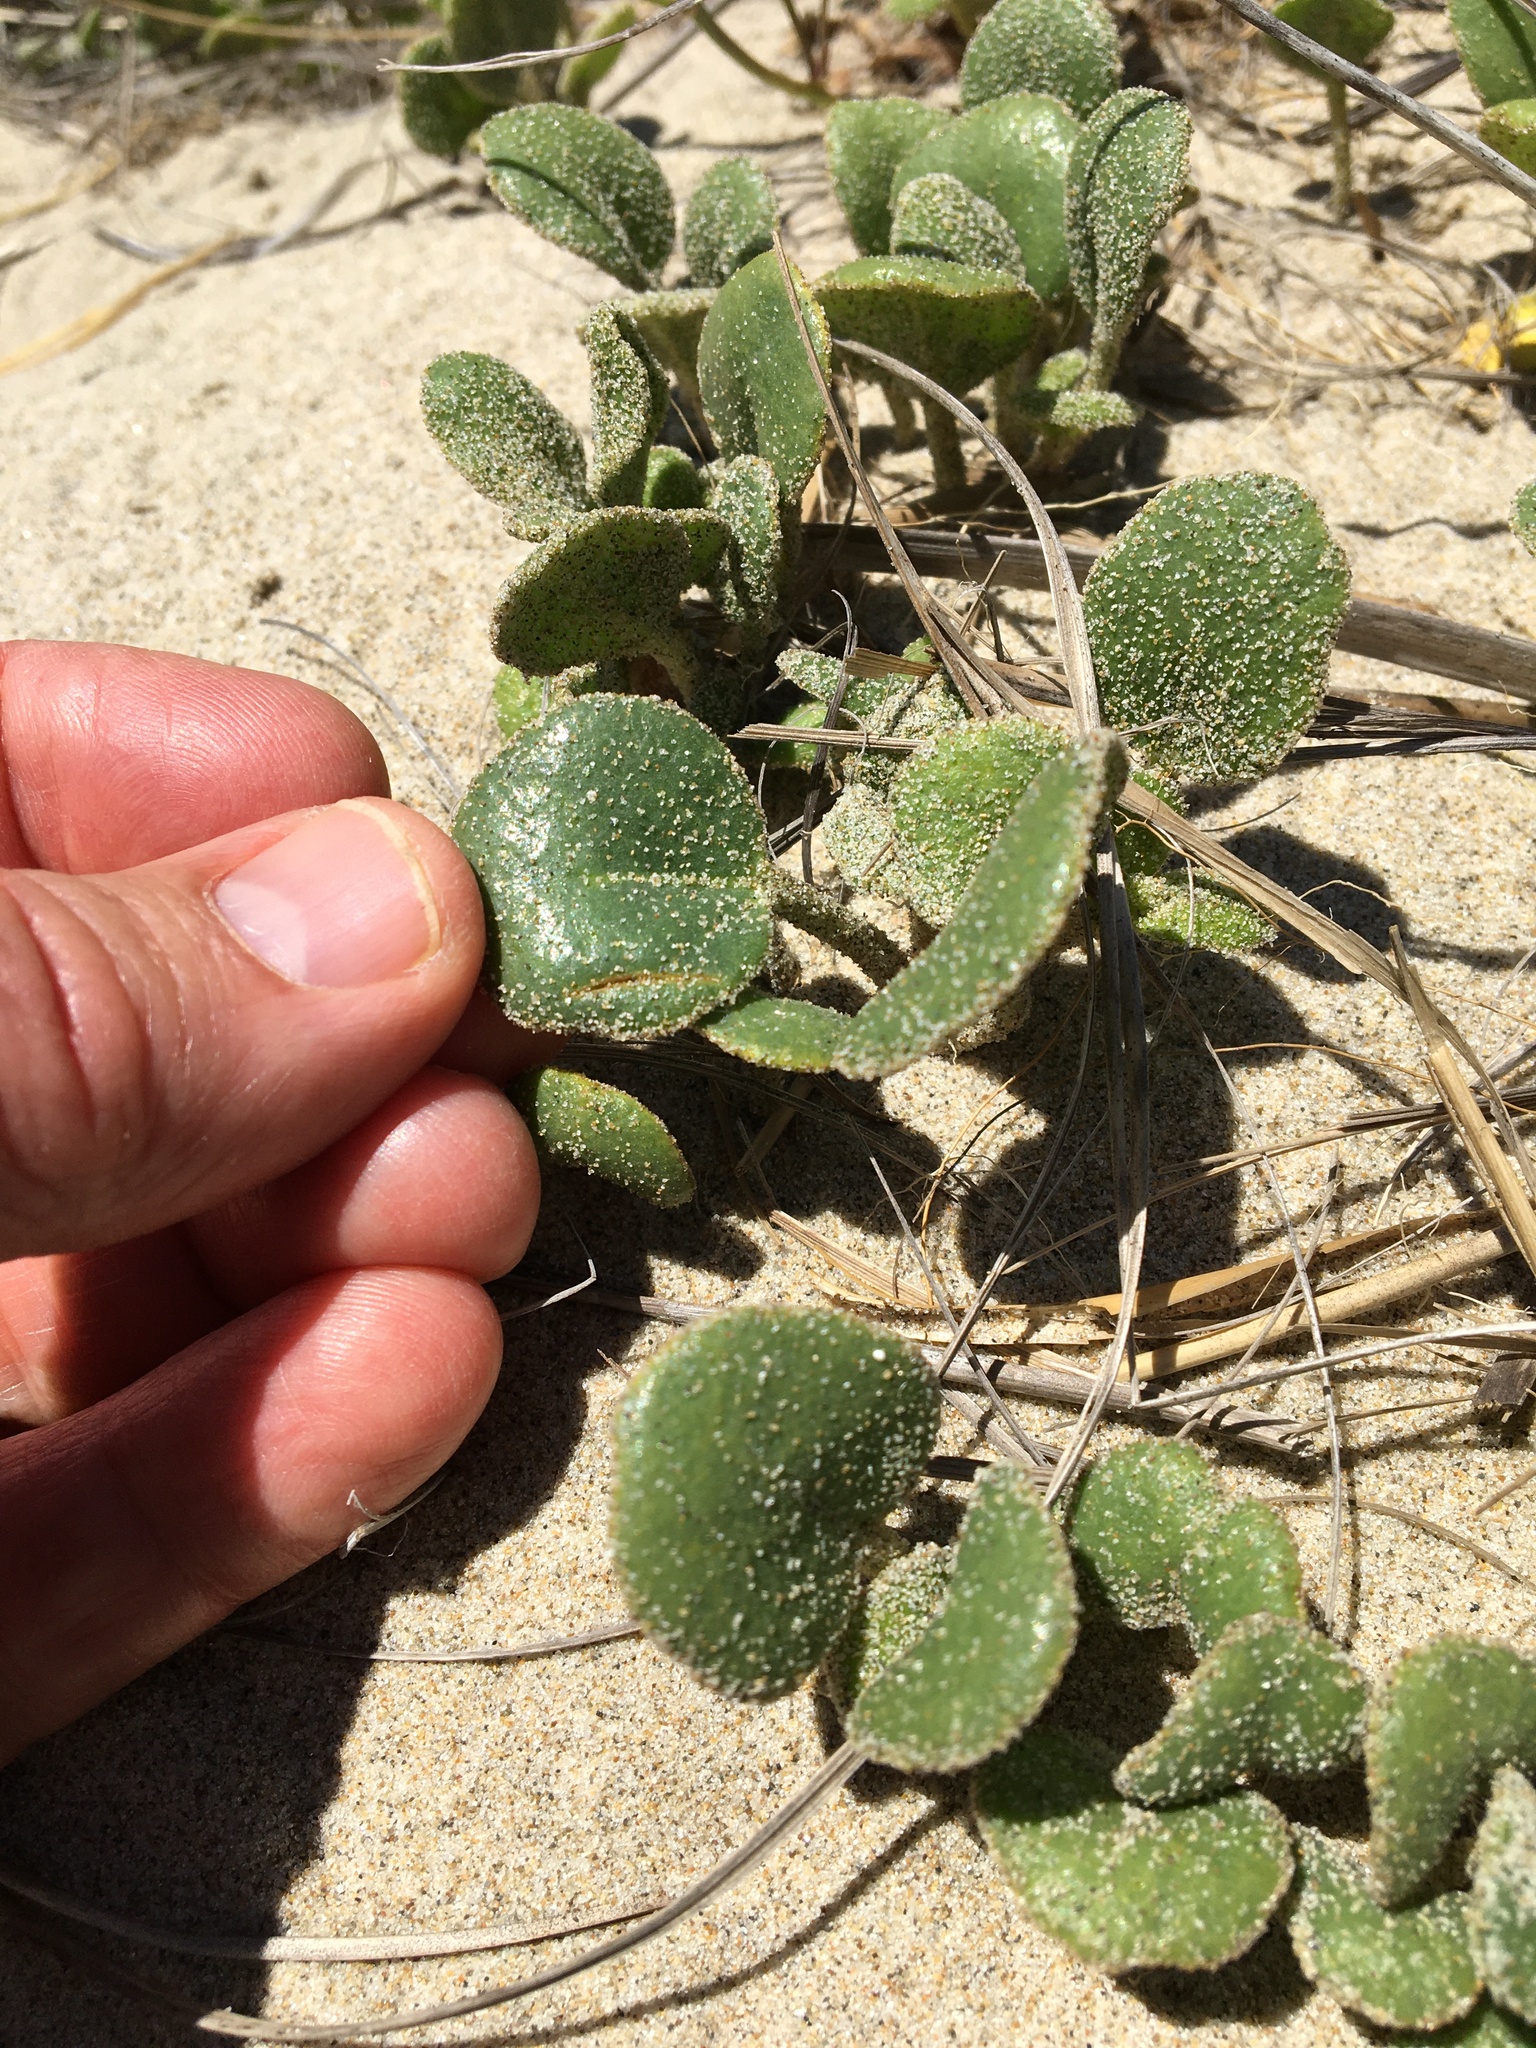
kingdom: Plantae
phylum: Tracheophyta
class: Magnoliopsida
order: Caryophyllales
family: Nyctaginaceae
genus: Abronia
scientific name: Abronia latifolia
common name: Yellow sand-verbena
